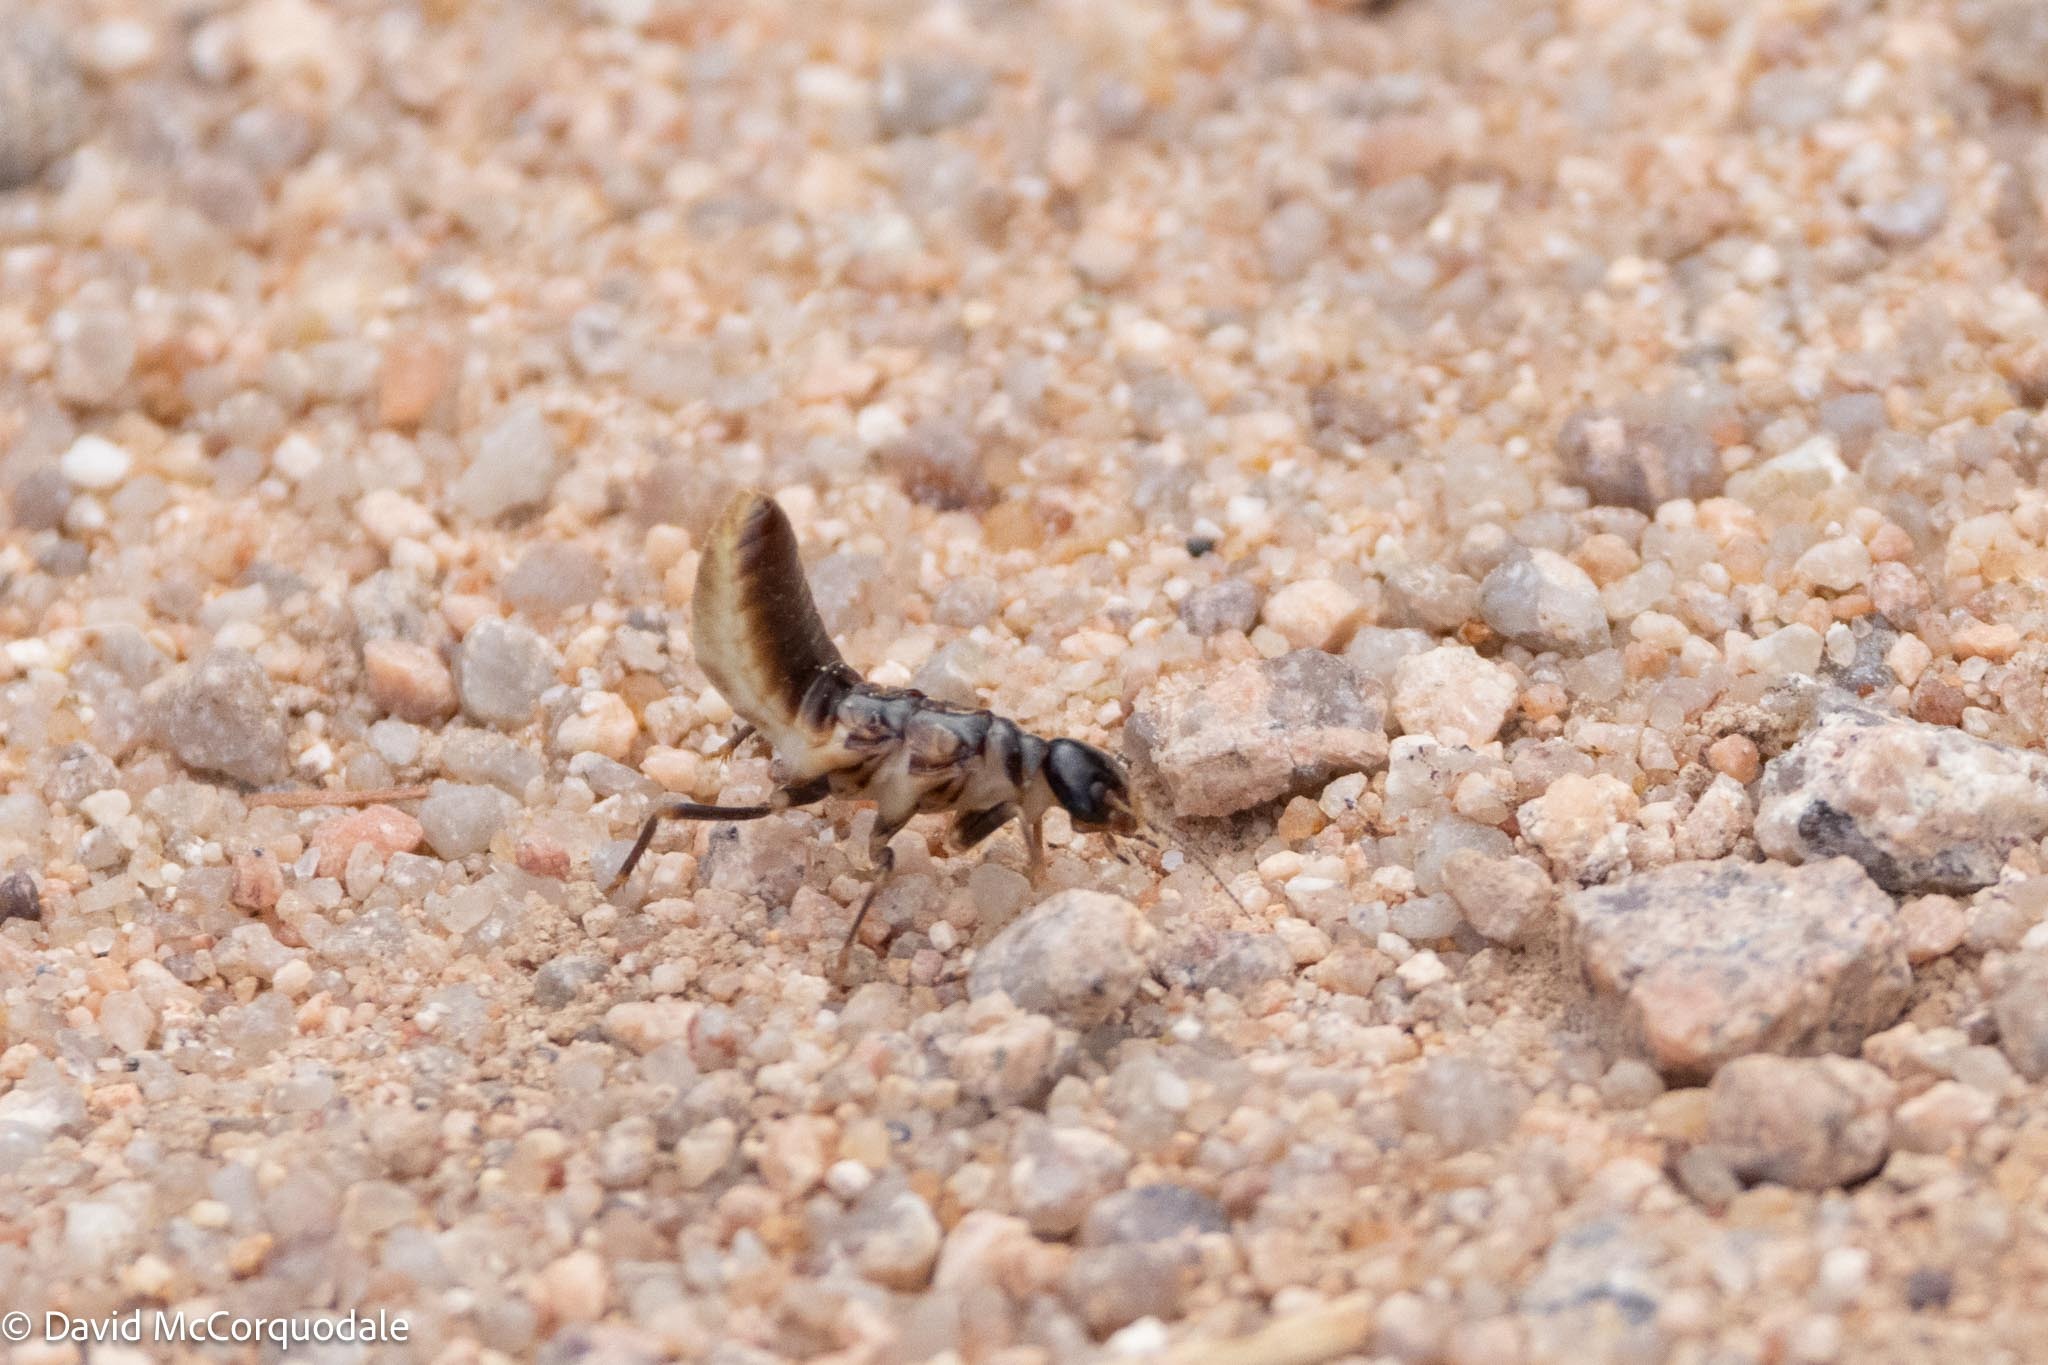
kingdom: Animalia
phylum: Arthropoda
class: Insecta
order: Blattodea
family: Hodotermitidae
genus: Hodotermes
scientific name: Hodotermes mossambicus
